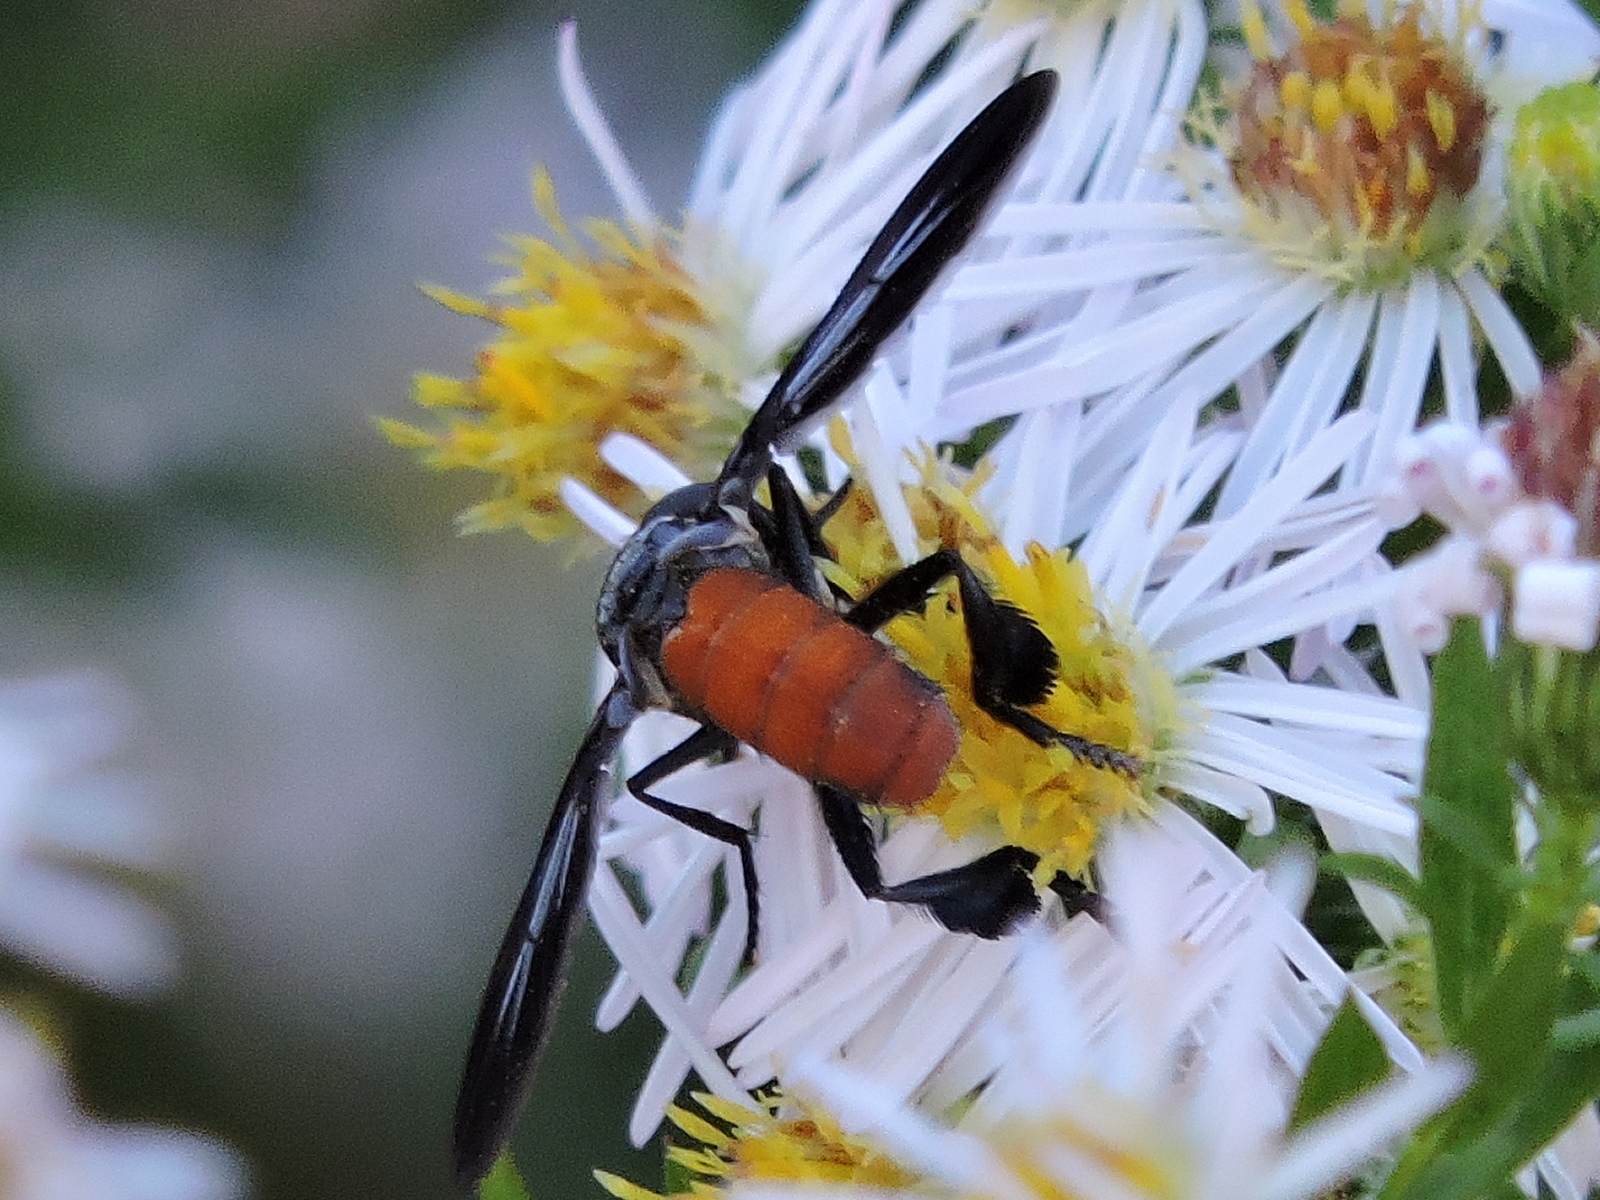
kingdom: Animalia
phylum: Arthropoda
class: Insecta
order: Diptera
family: Tachinidae
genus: Trichopoda
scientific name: Trichopoda pennipes
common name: Tachinid fly
